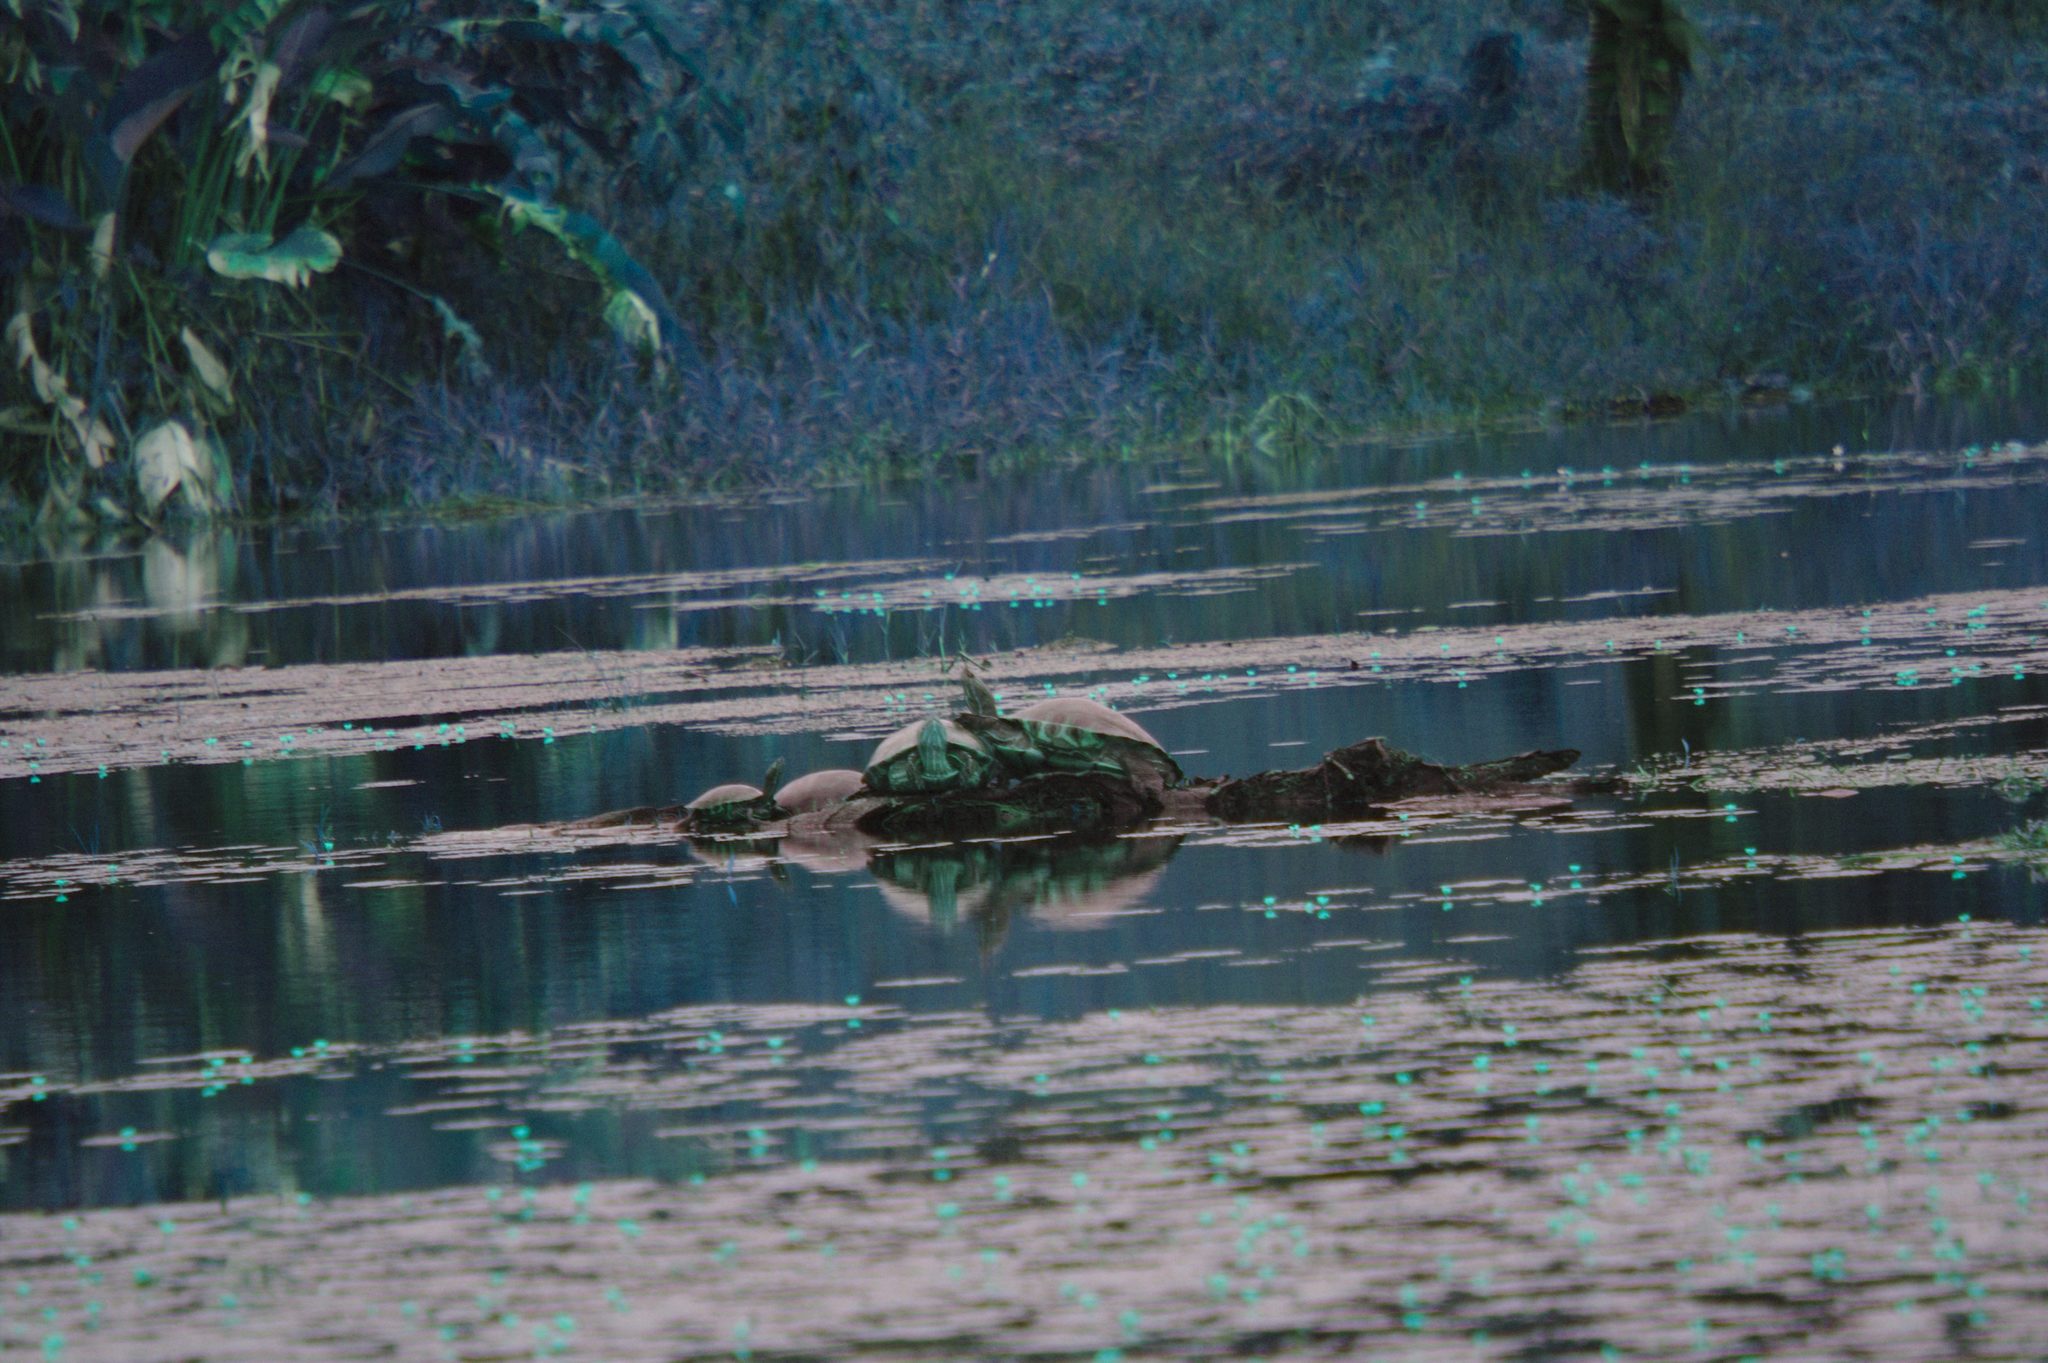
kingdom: Animalia
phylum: Chordata
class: Testudines
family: Emydidae
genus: Trachemys
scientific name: Trachemys venusta
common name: Mesoamerican slider
